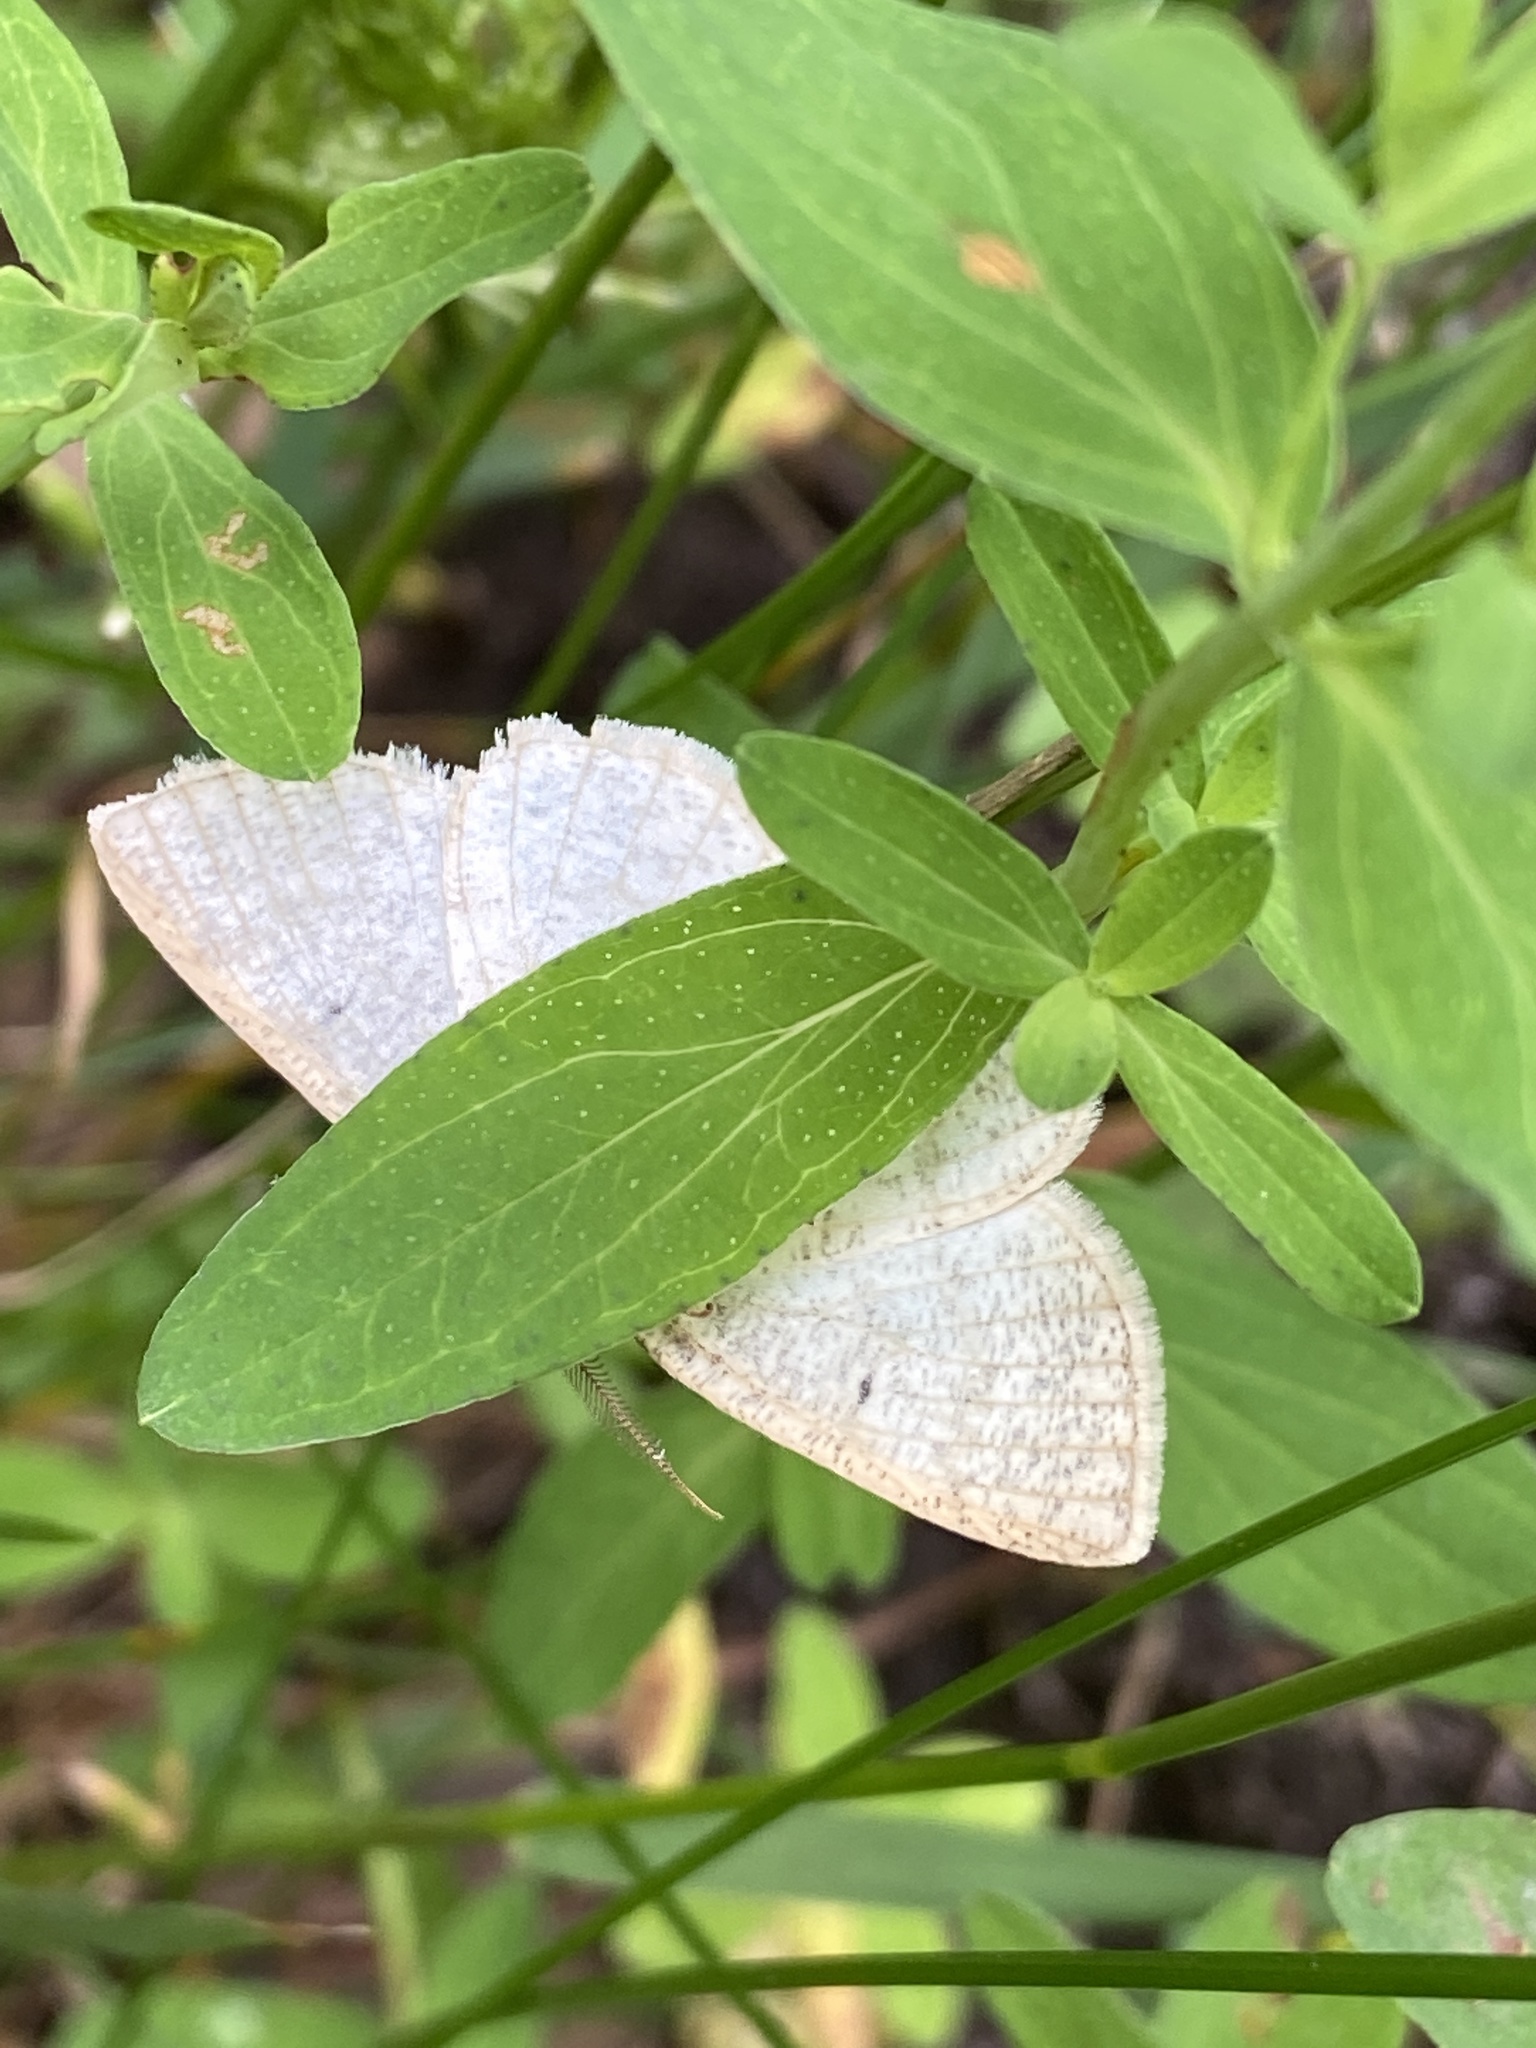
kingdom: Animalia
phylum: Arthropoda
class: Insecta
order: Lepidoptera
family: Geometridae
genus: Cabera
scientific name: Cabera exanthemata
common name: Common wave
